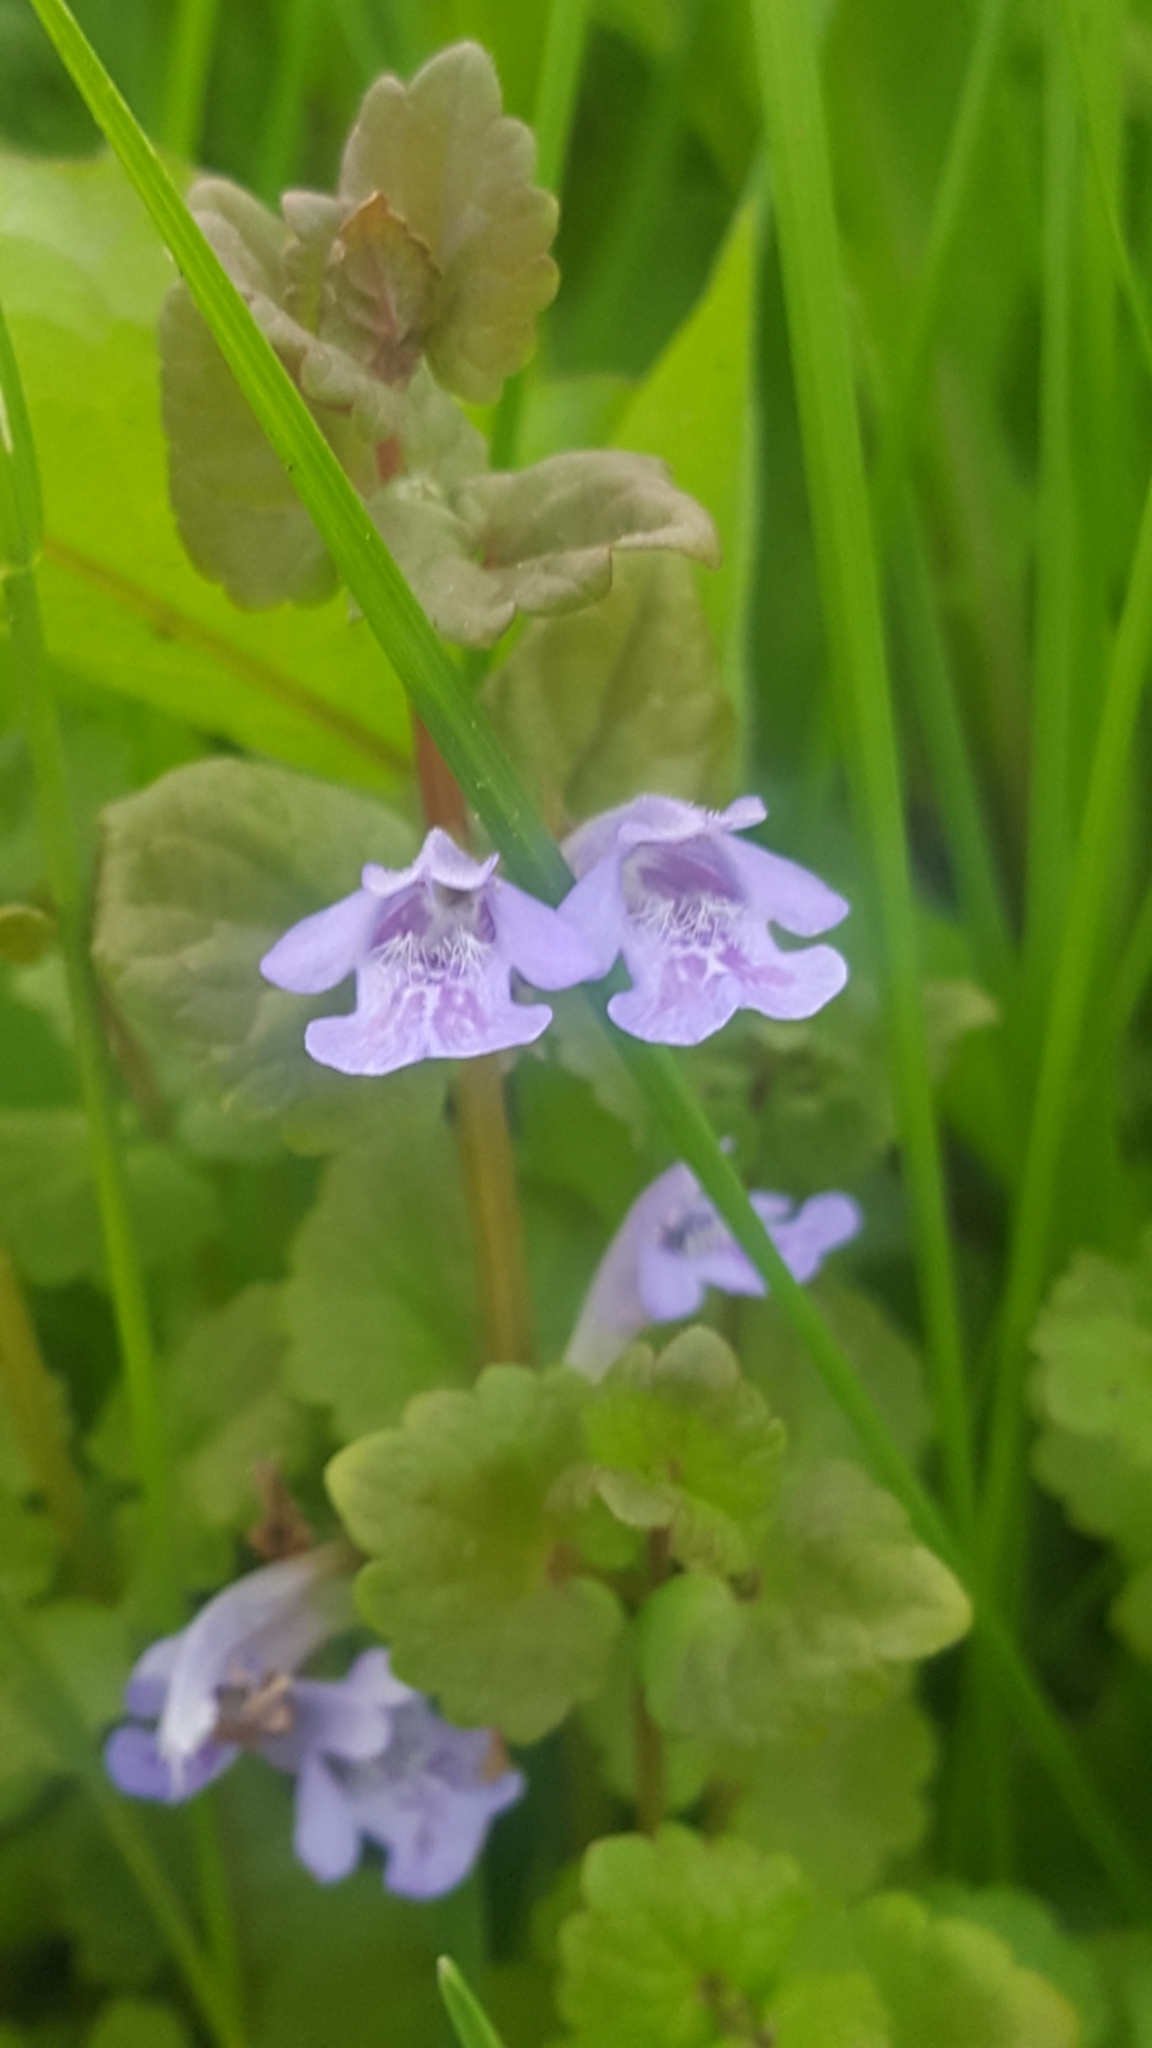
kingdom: Plantae
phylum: Tracheophyta
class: Magnoliopsida
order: Lamiales
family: Lamiaceae
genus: Glechoma
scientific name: Glechoma hederacea
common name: Ground ivy
